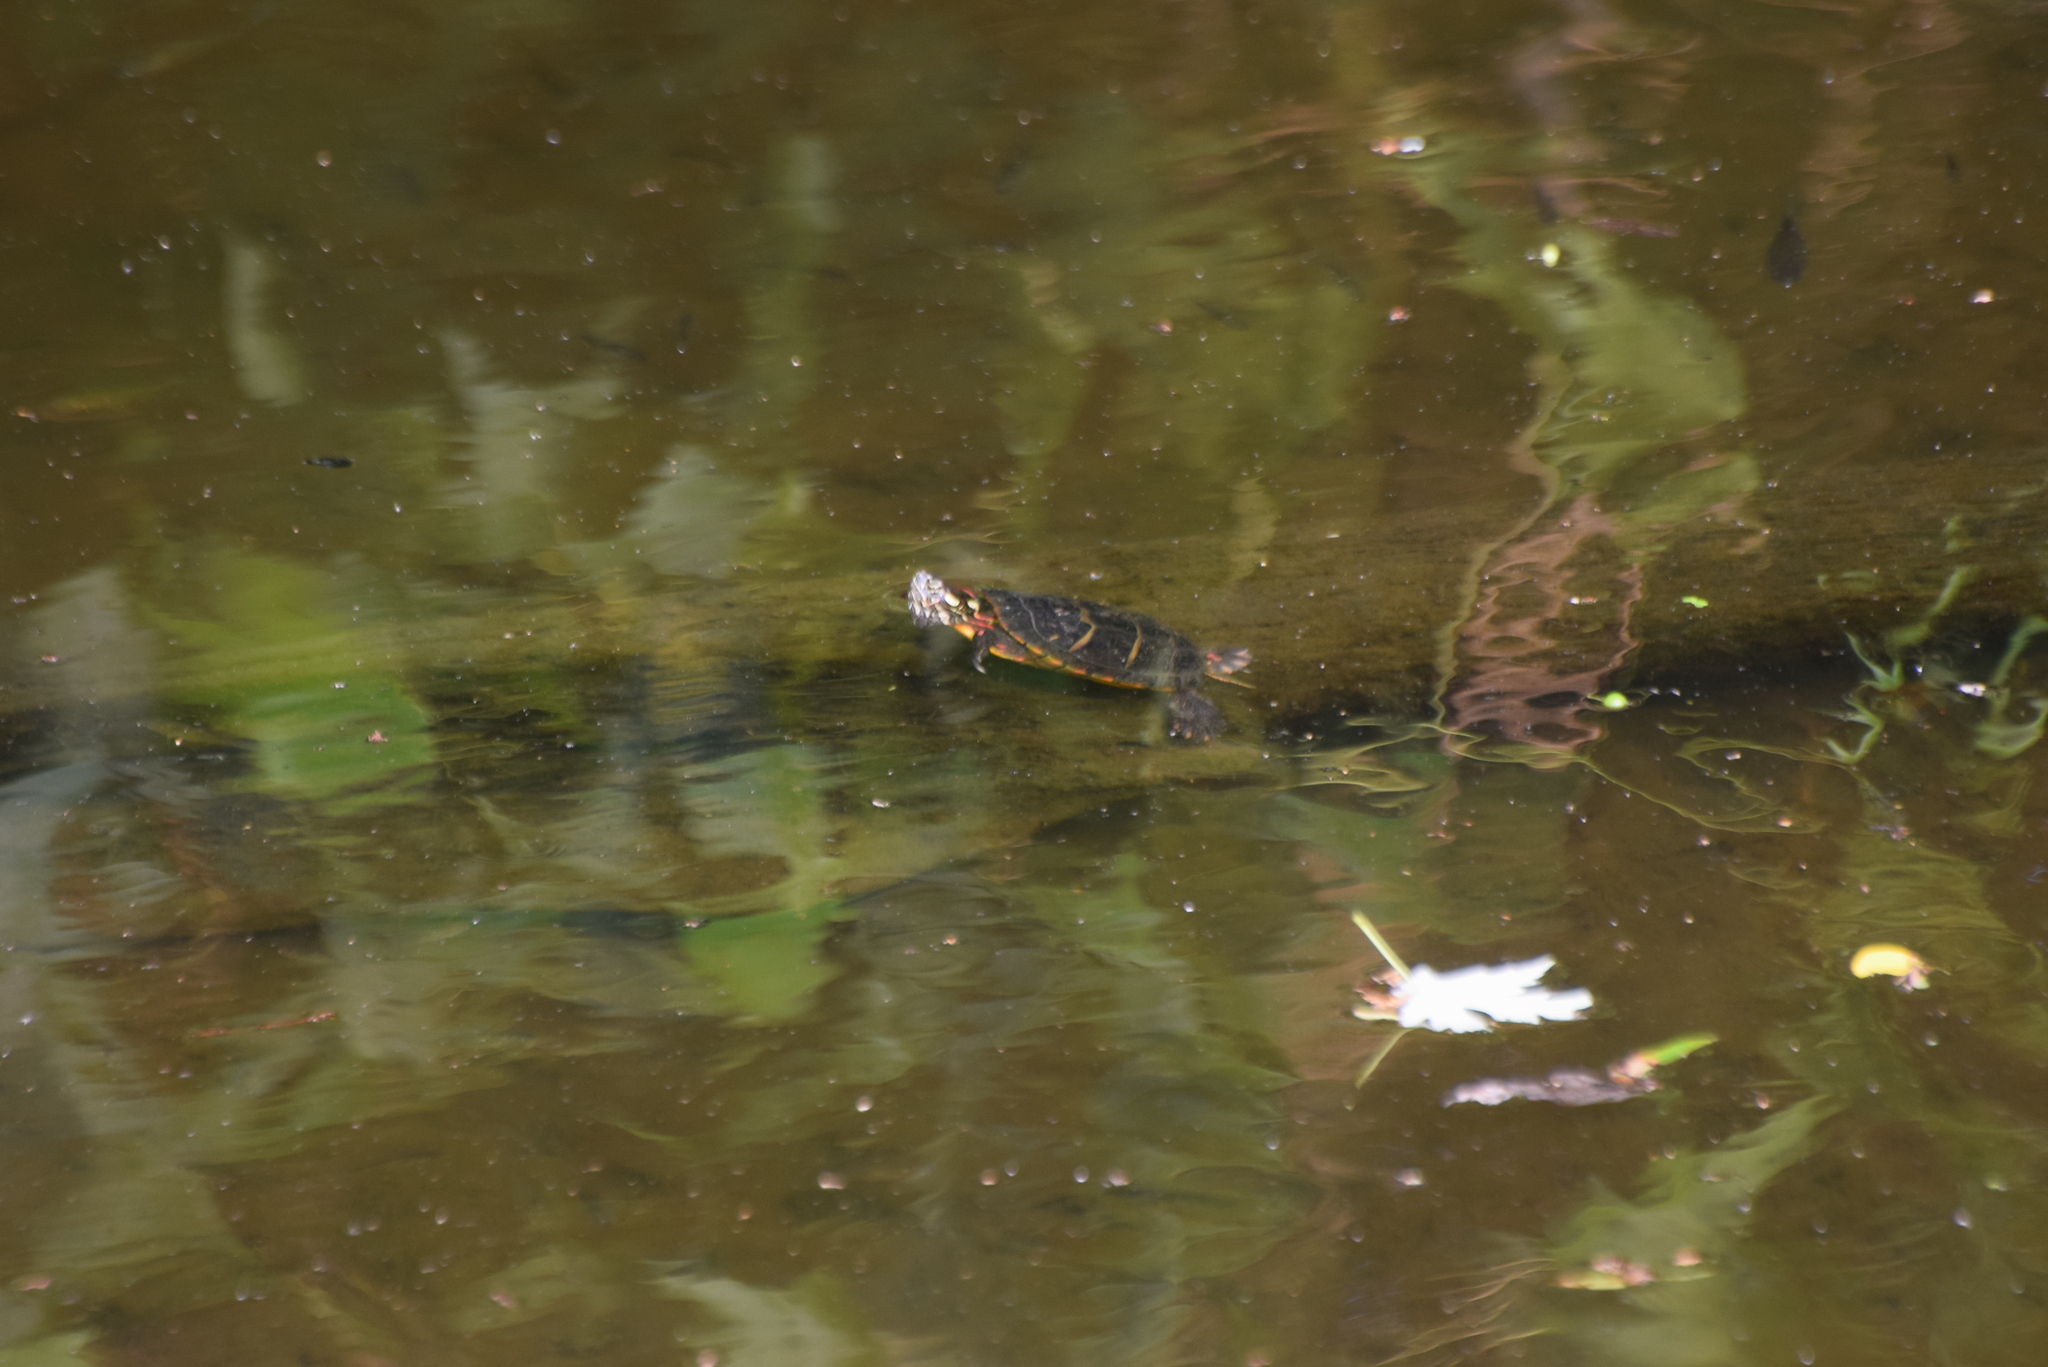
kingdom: Animalia
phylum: Chordata
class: Testudines
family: Emydidae
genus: Chrysemys
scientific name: Chrysemys picta
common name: Painted turtle
